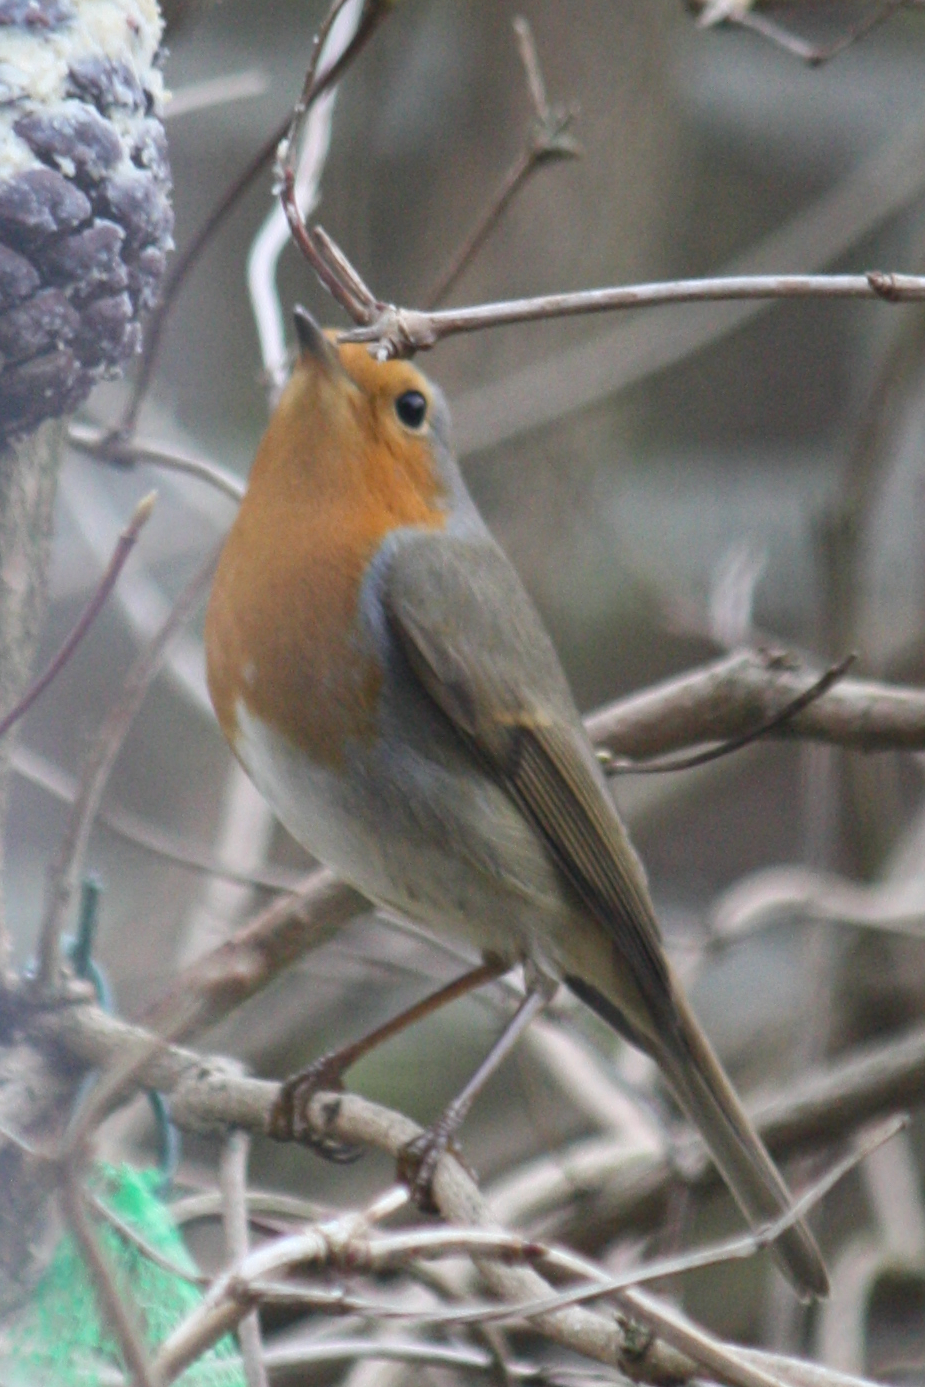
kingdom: Animalia
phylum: Chordata
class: Aves
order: Passeriformes
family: Muscicapidae
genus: Erithacus
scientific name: Erithacus rubecula
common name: European robin
